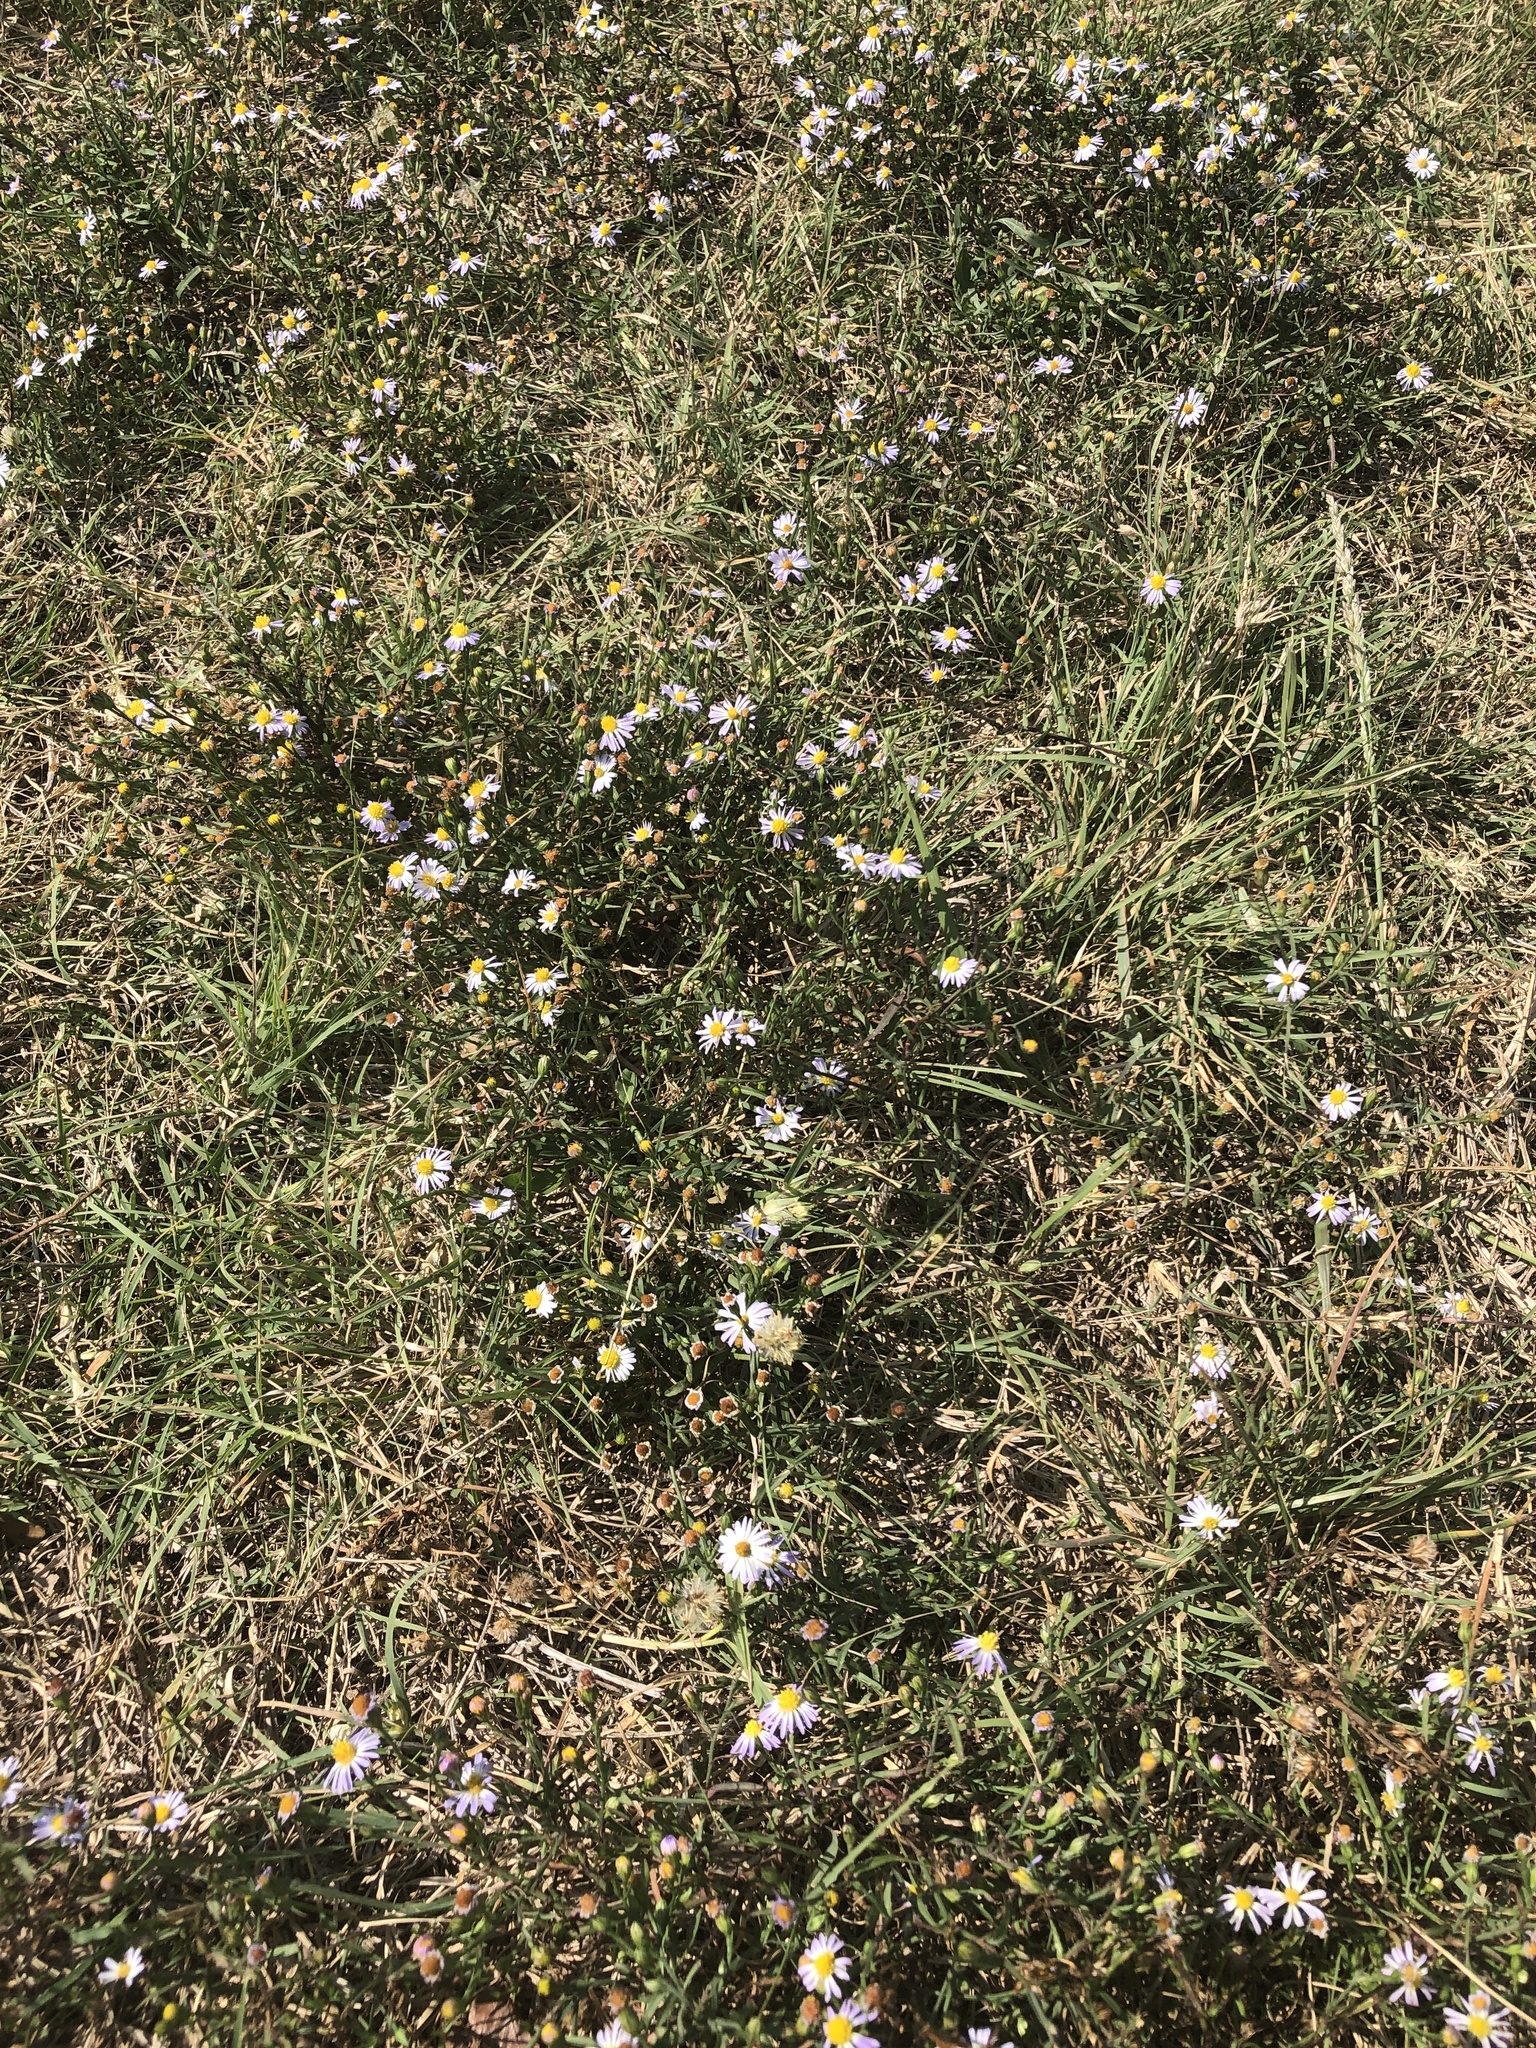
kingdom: Plantae
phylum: Tracheophyta
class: Magnoliopsida
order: Asterales
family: Asteraceae
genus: Symphyotrichum
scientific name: Symphyotrichum divaricatum
